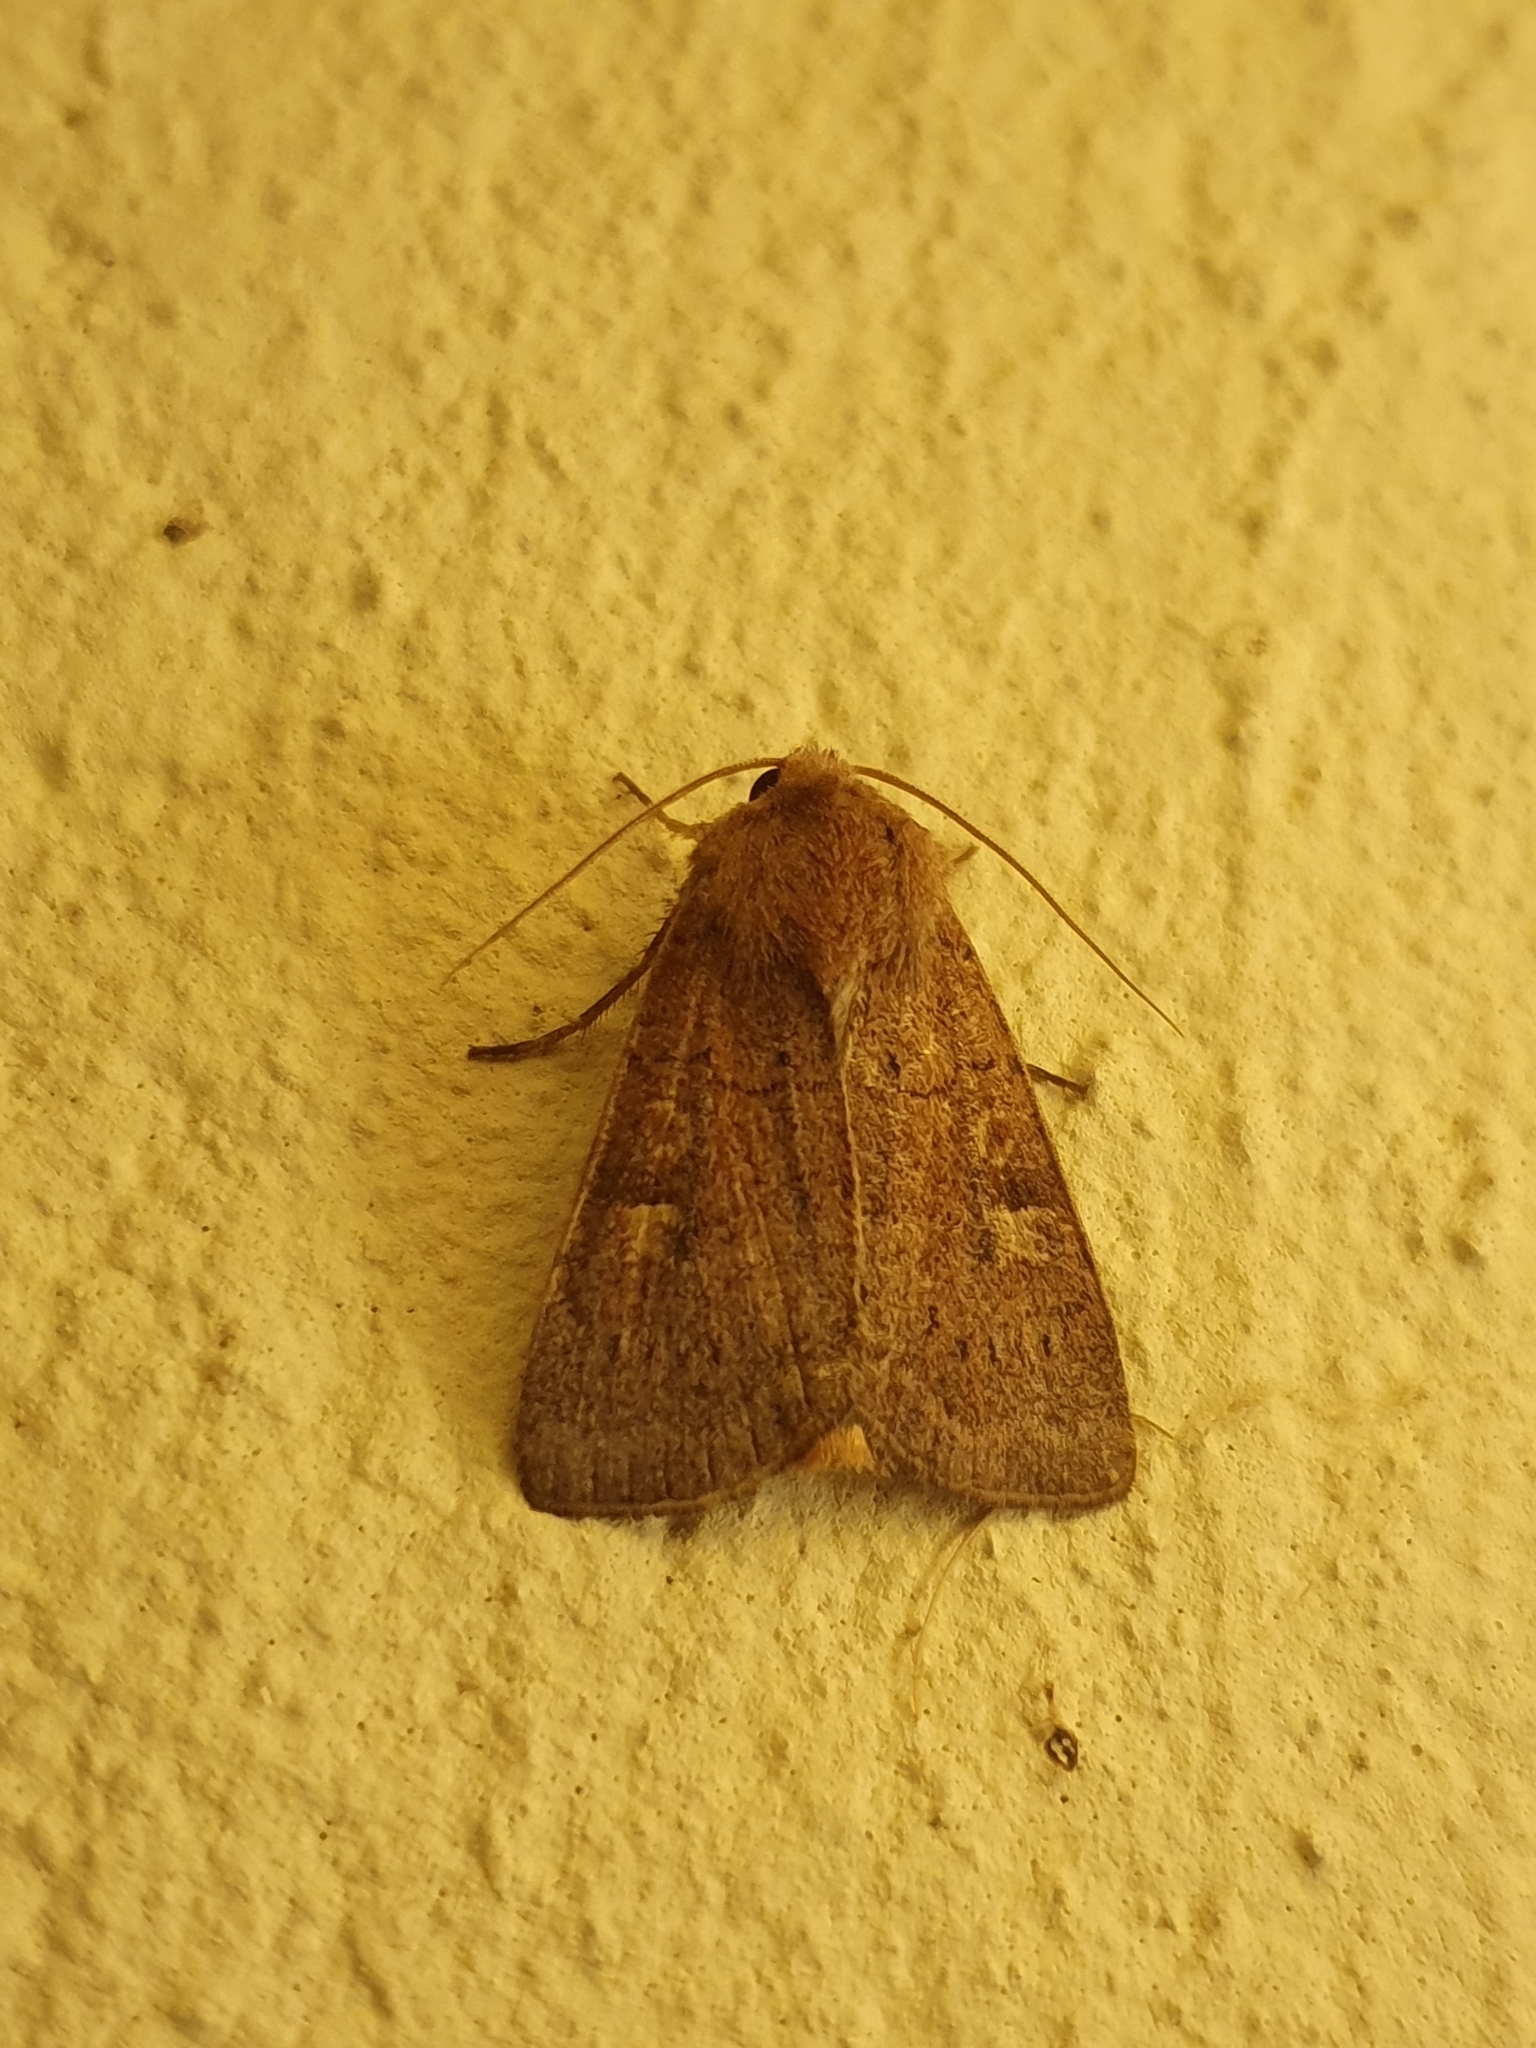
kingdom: Animalia
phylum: Arthropoda
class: Insecta
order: Lepidoptera
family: Noctuidae
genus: Xestia
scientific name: Xestia xanthographa
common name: Square-spot rustic
